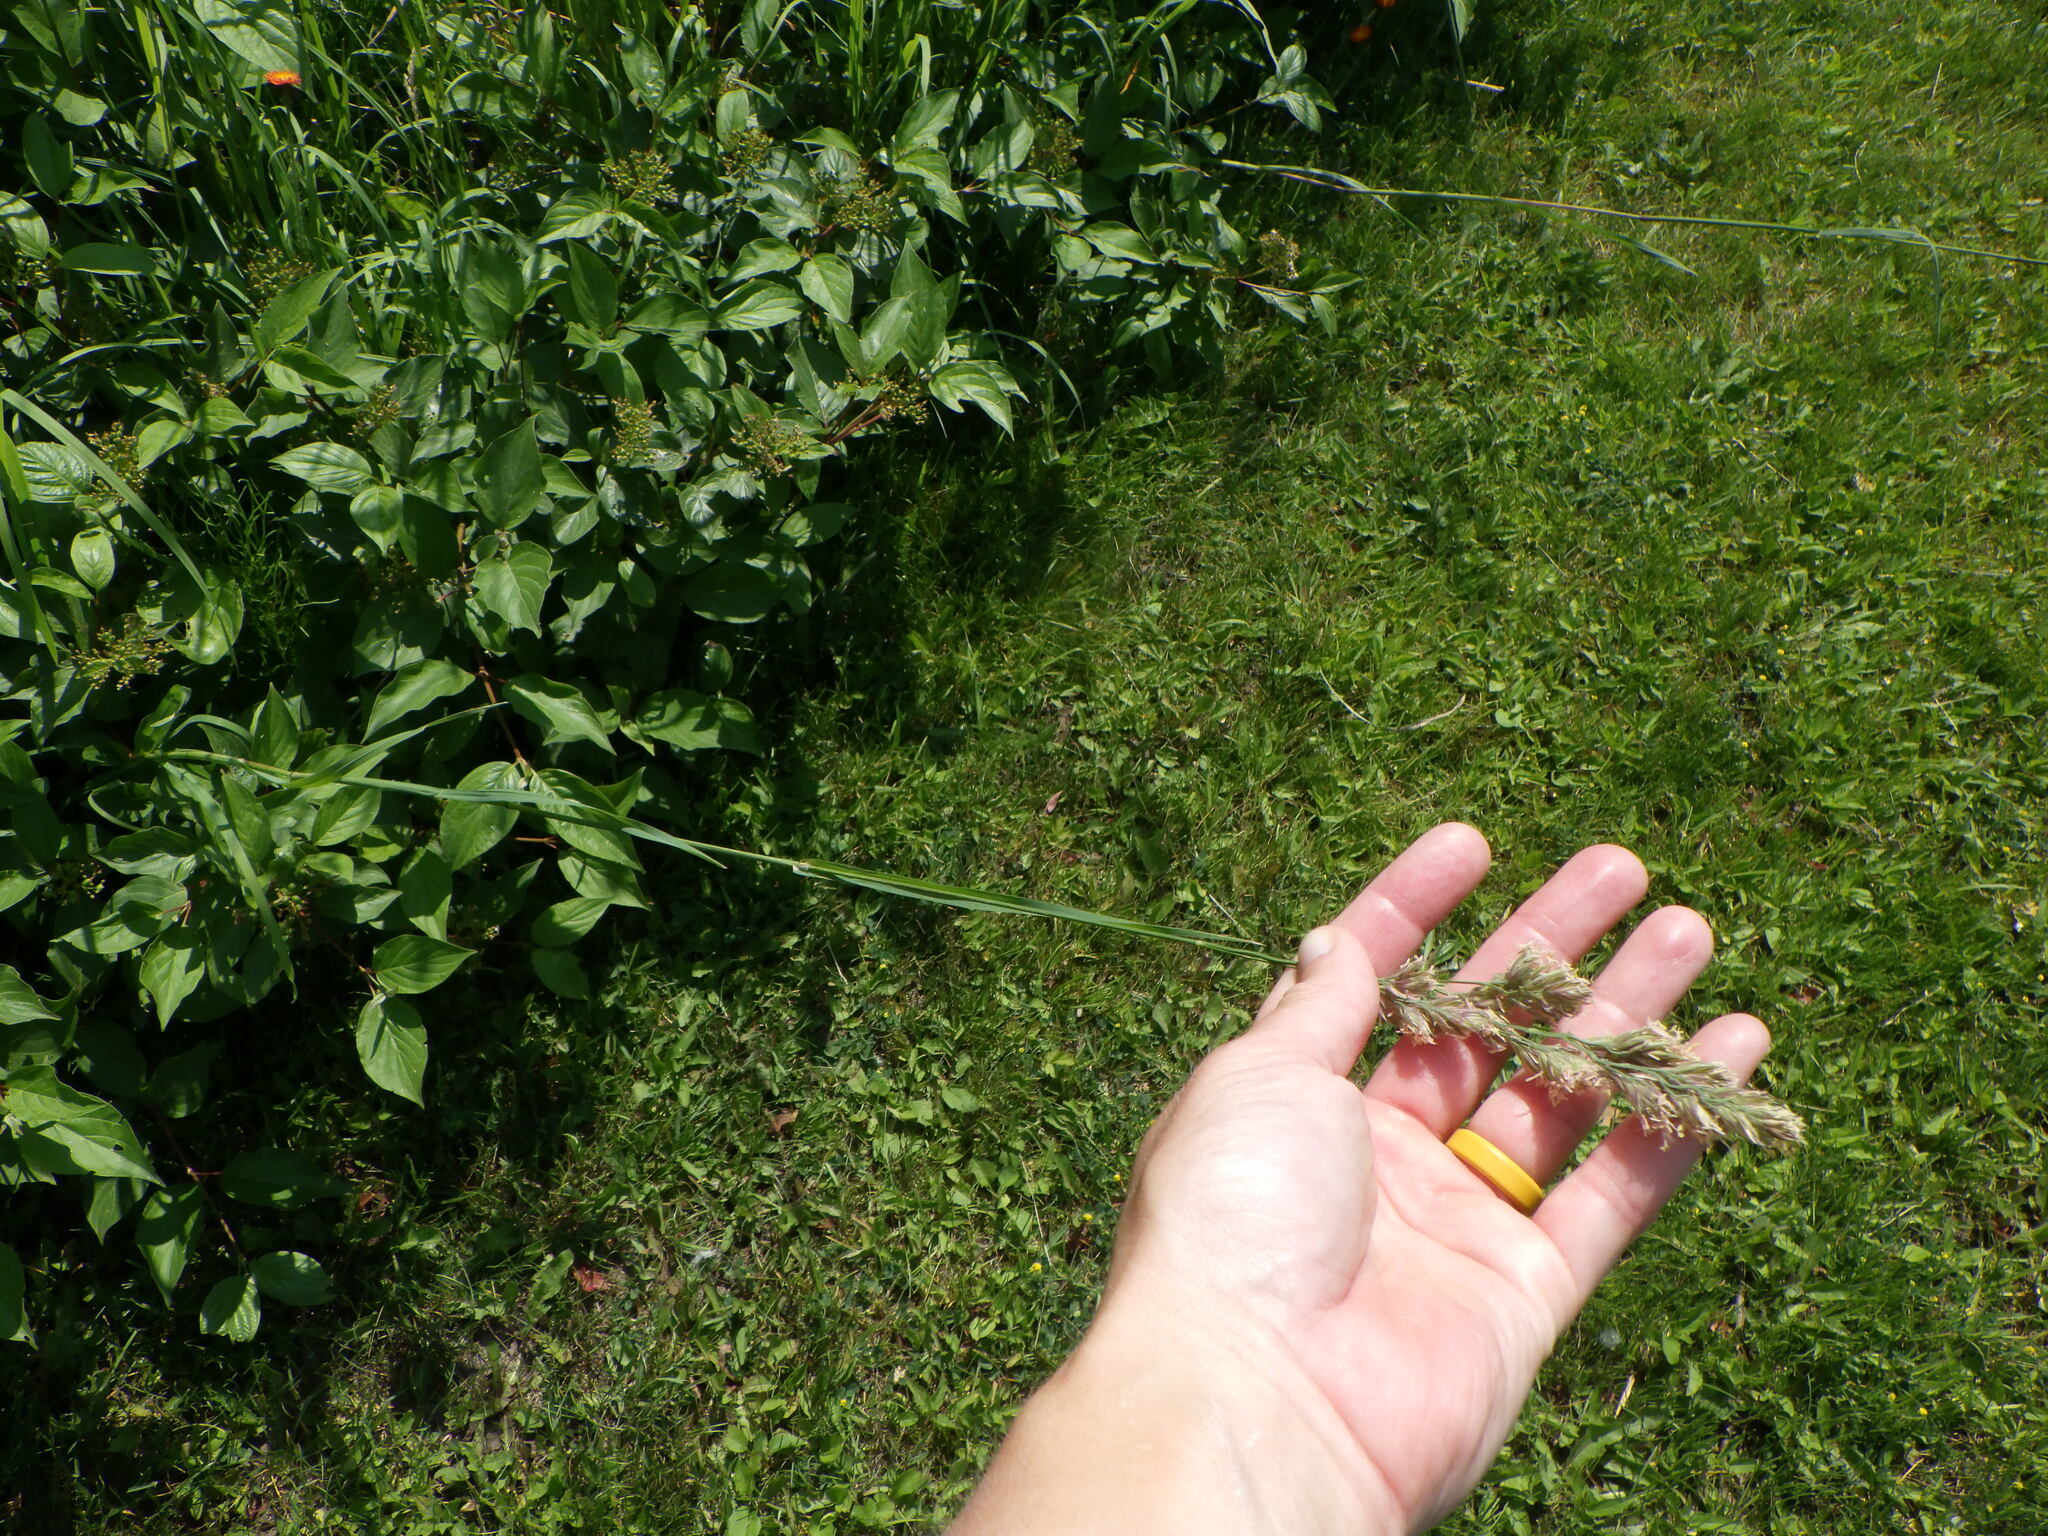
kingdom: Plantae
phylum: Tracheophyta
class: Liliopsida
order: Poales
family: Poaceae
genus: Dactylis
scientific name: Dactylis glomerata
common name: Orchardgrass
